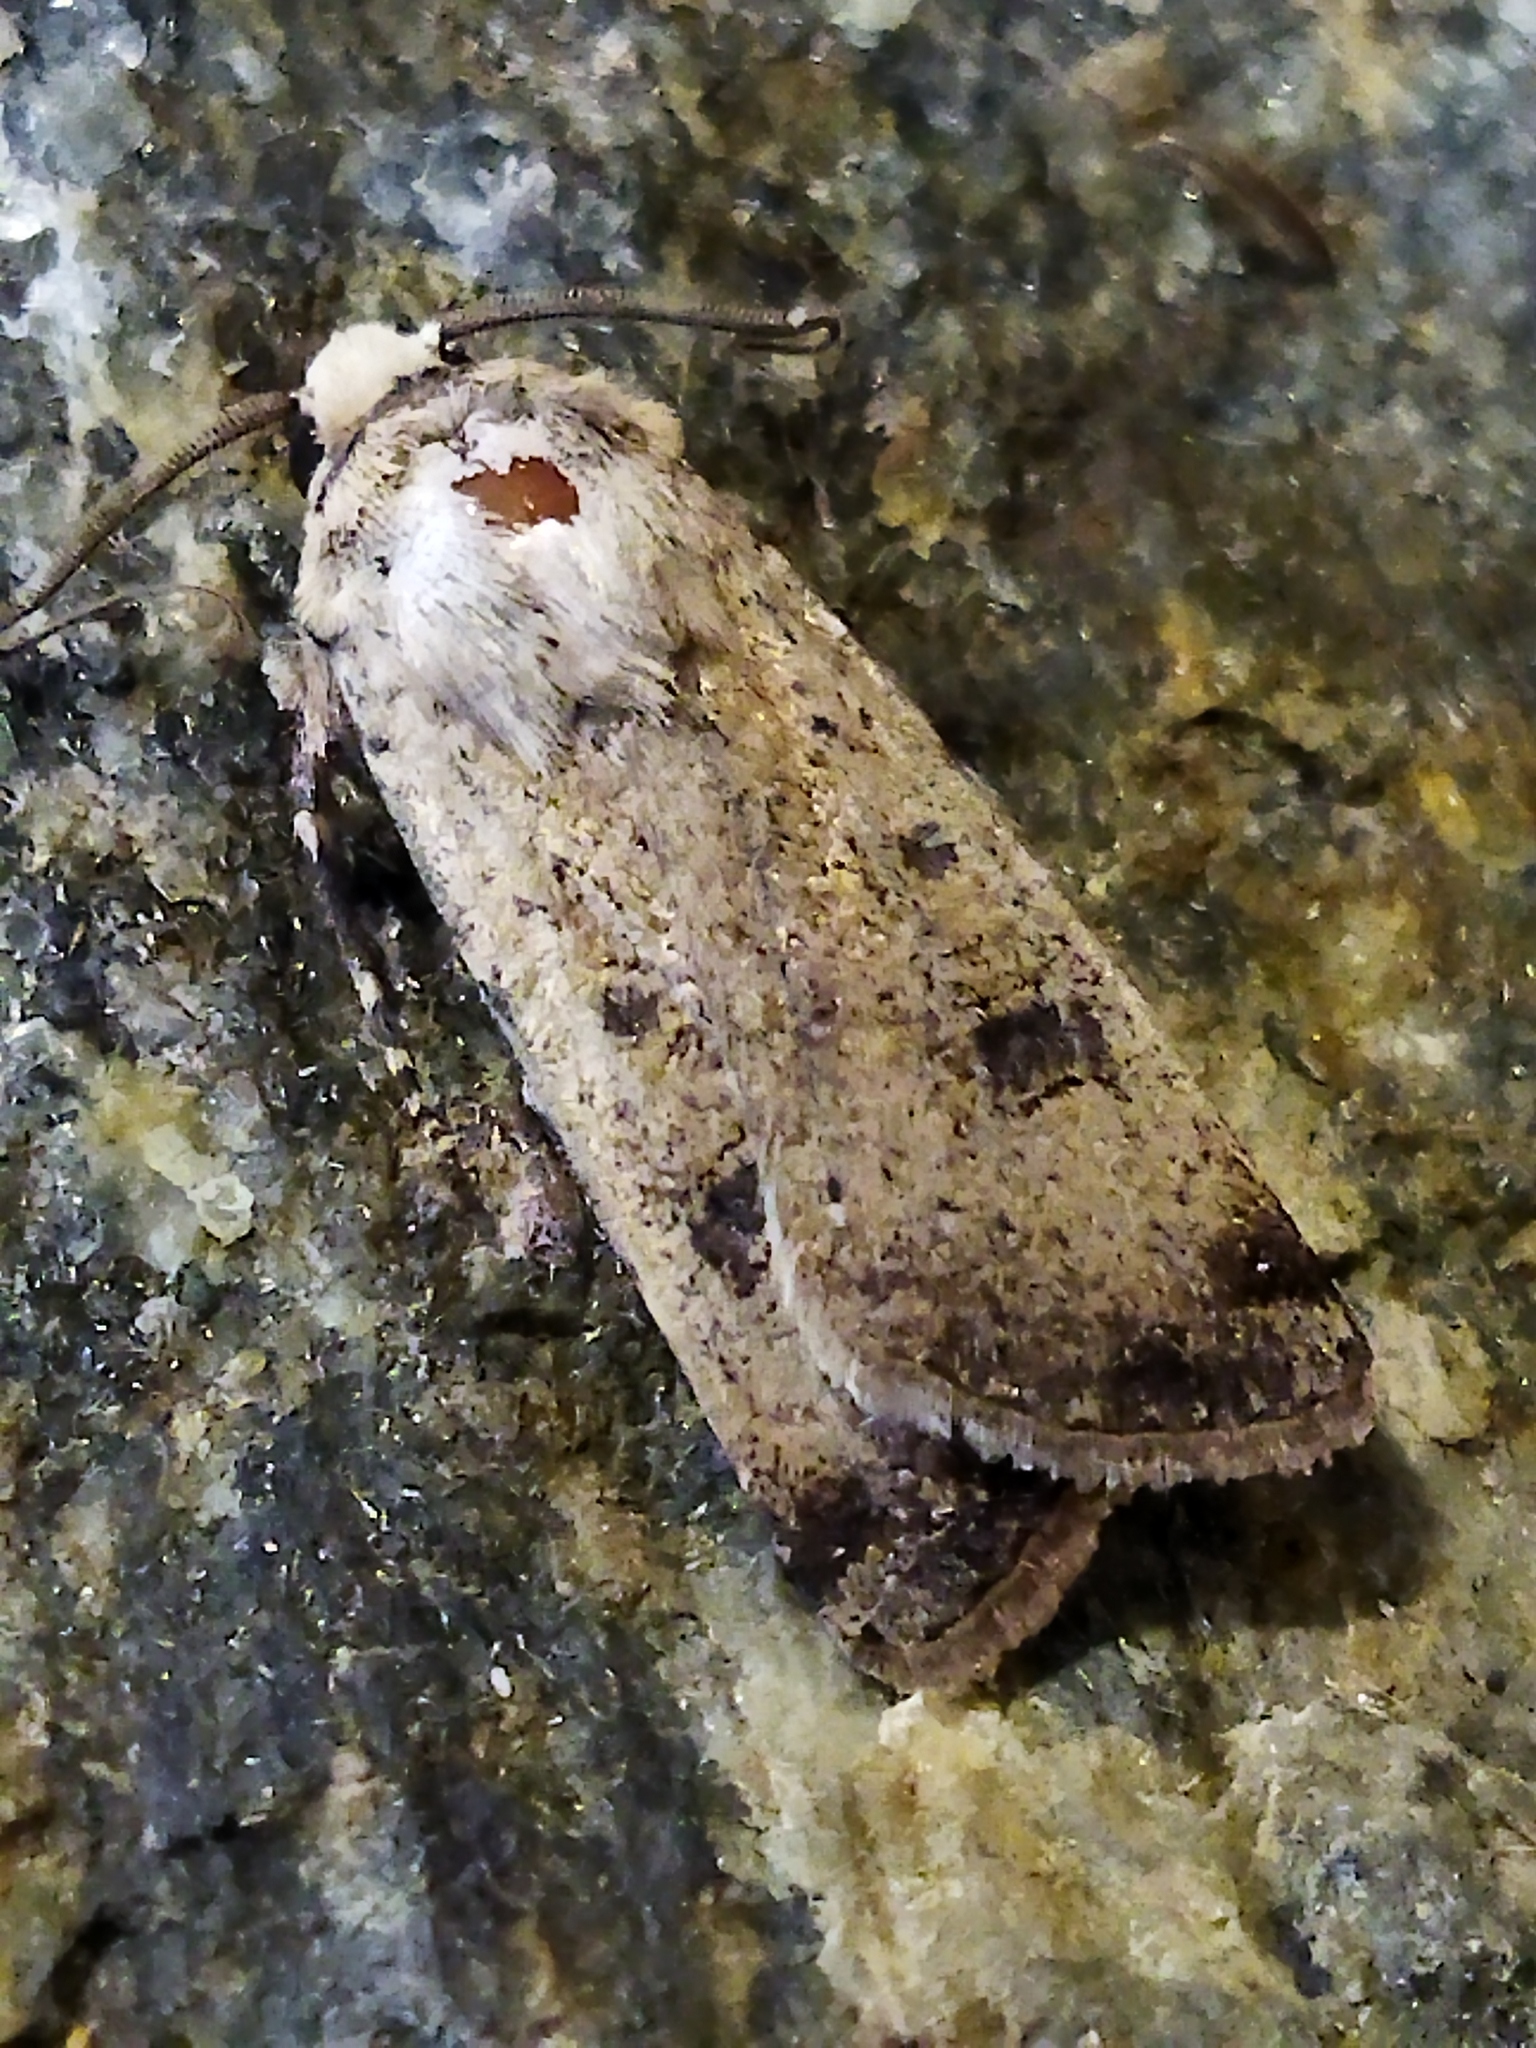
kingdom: Animalia
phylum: Arthropoda
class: Insecta
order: Lepidoptera
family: Noctuidae
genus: Agrotis
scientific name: Agrotis trux
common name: Crescent dart
